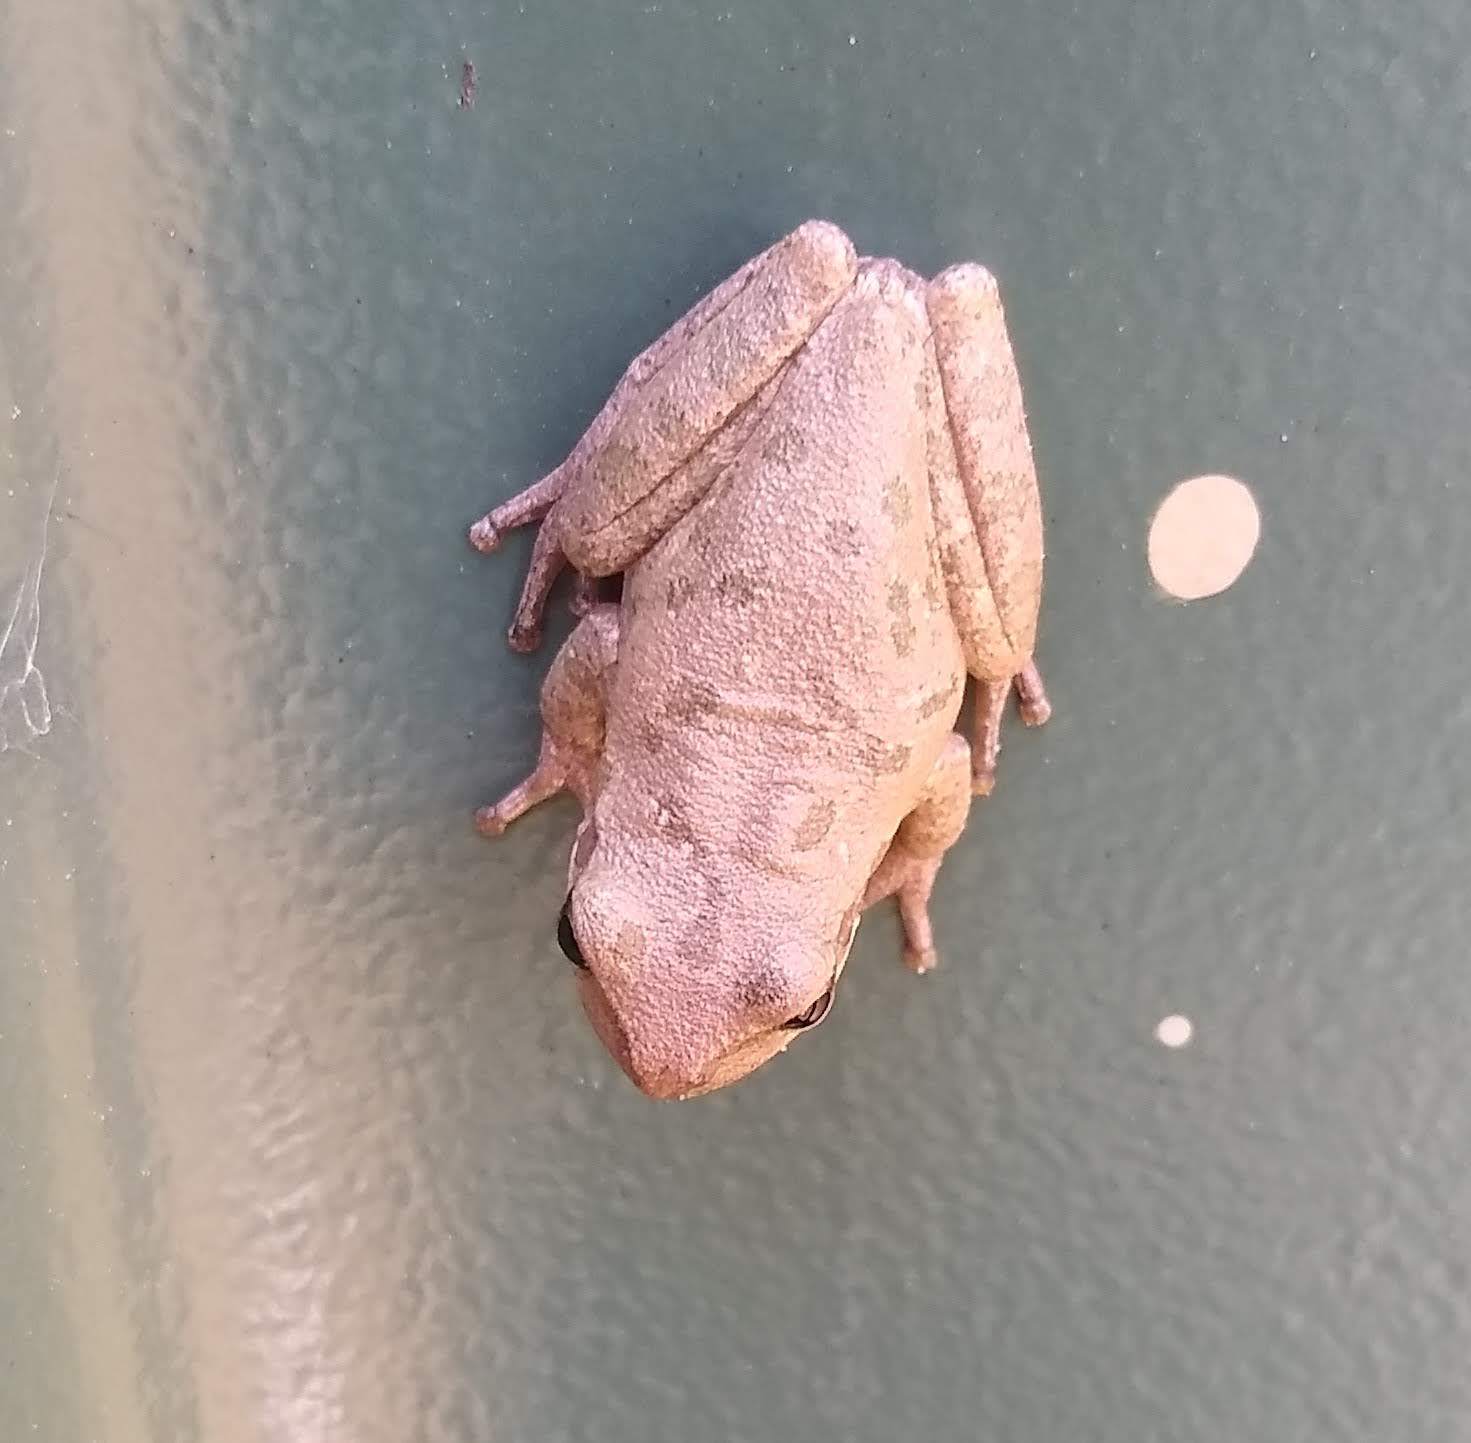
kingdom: Animalia
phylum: Chordata
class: Amphibia
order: Anura
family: Hylidae
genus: Dryophytes
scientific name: Dryophytes squirellus
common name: Squirrel treefrog
